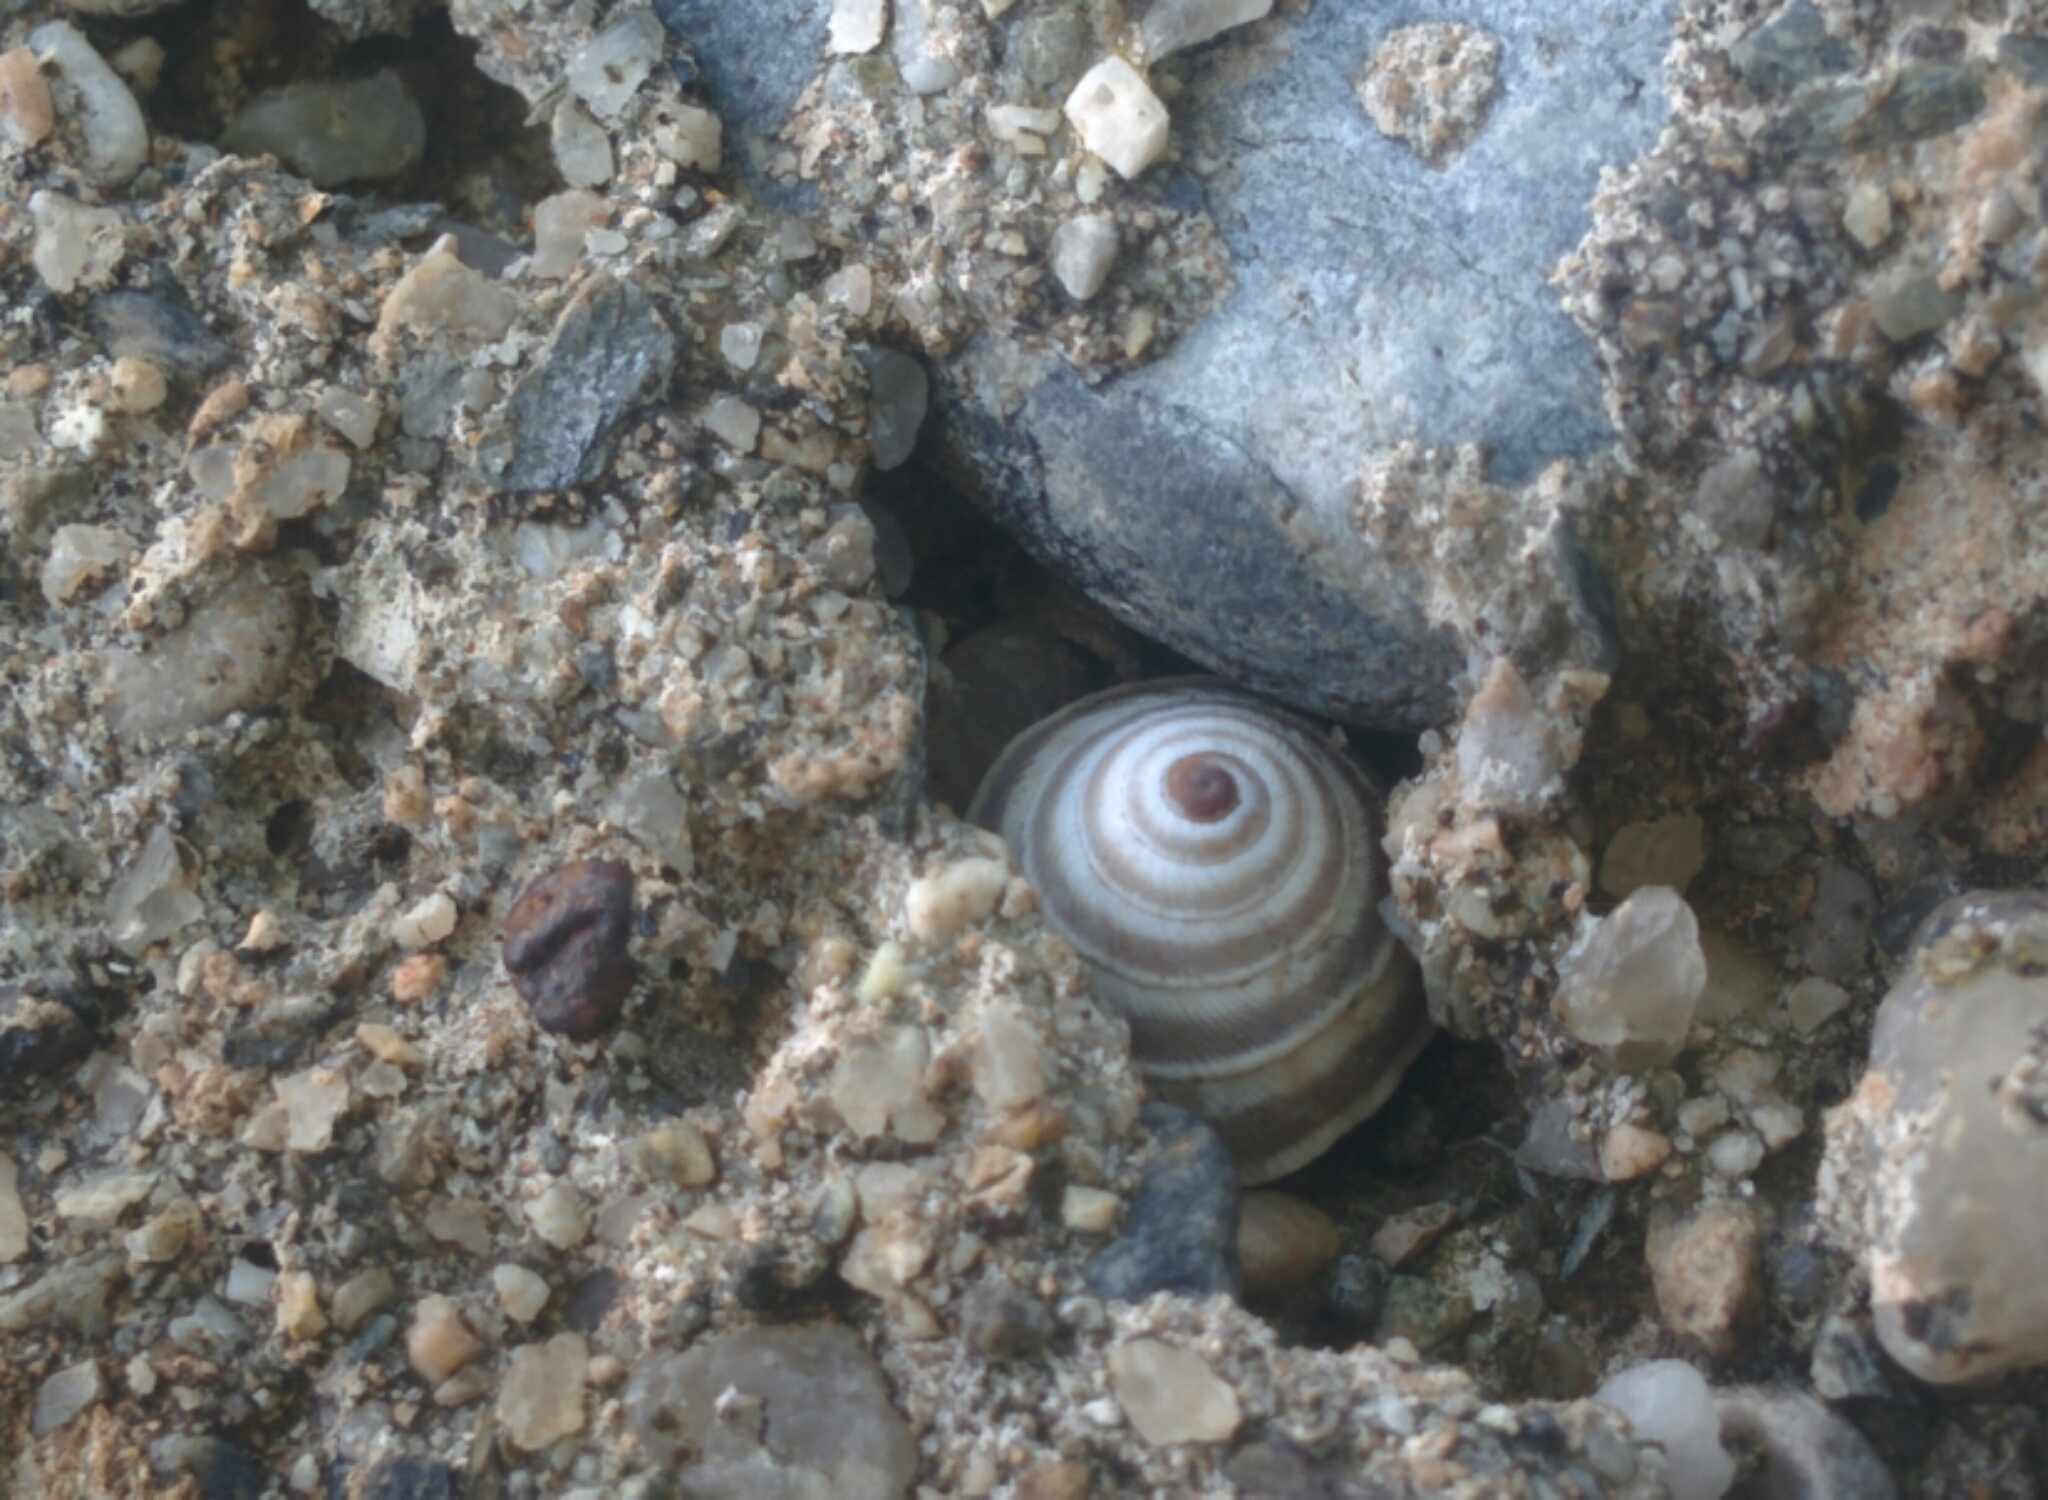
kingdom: Animalia
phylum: Mollusca
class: Gastropoda
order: Stylommatophora
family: Geomitridae
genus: Trochoidea
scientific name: Trochoidea elegans
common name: Elegant helicellid
